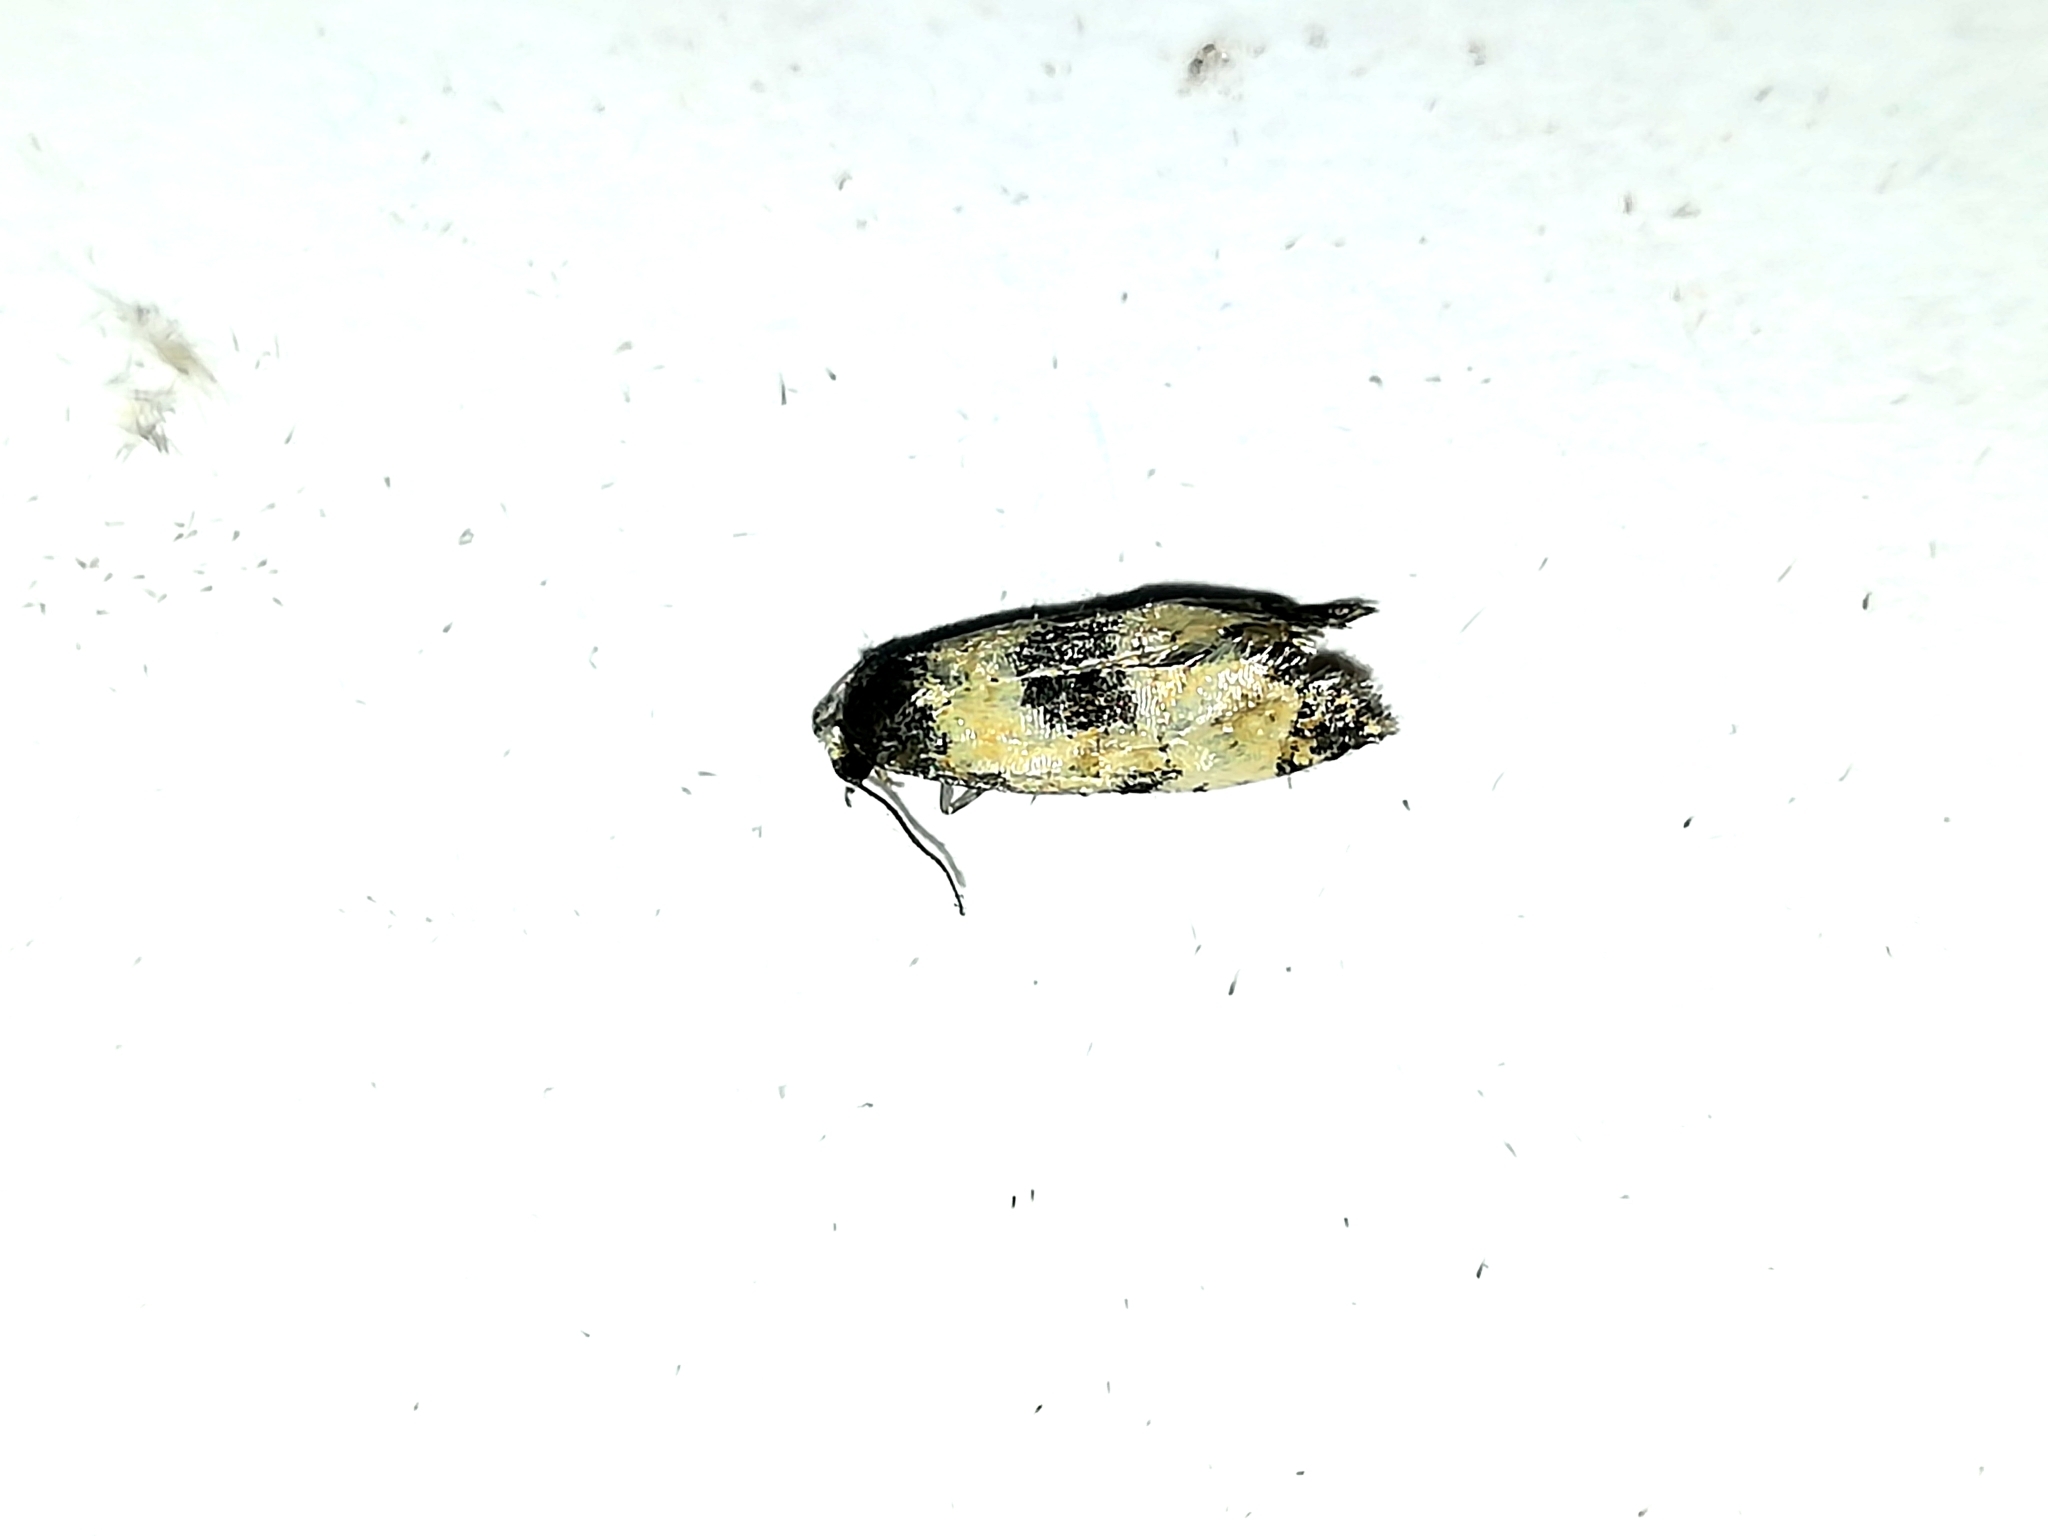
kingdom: Animalia
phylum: Arthropoda
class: Insecta
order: Lepidoptera
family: Tortricidae
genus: Cochylis
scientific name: Cochylis dubitana
